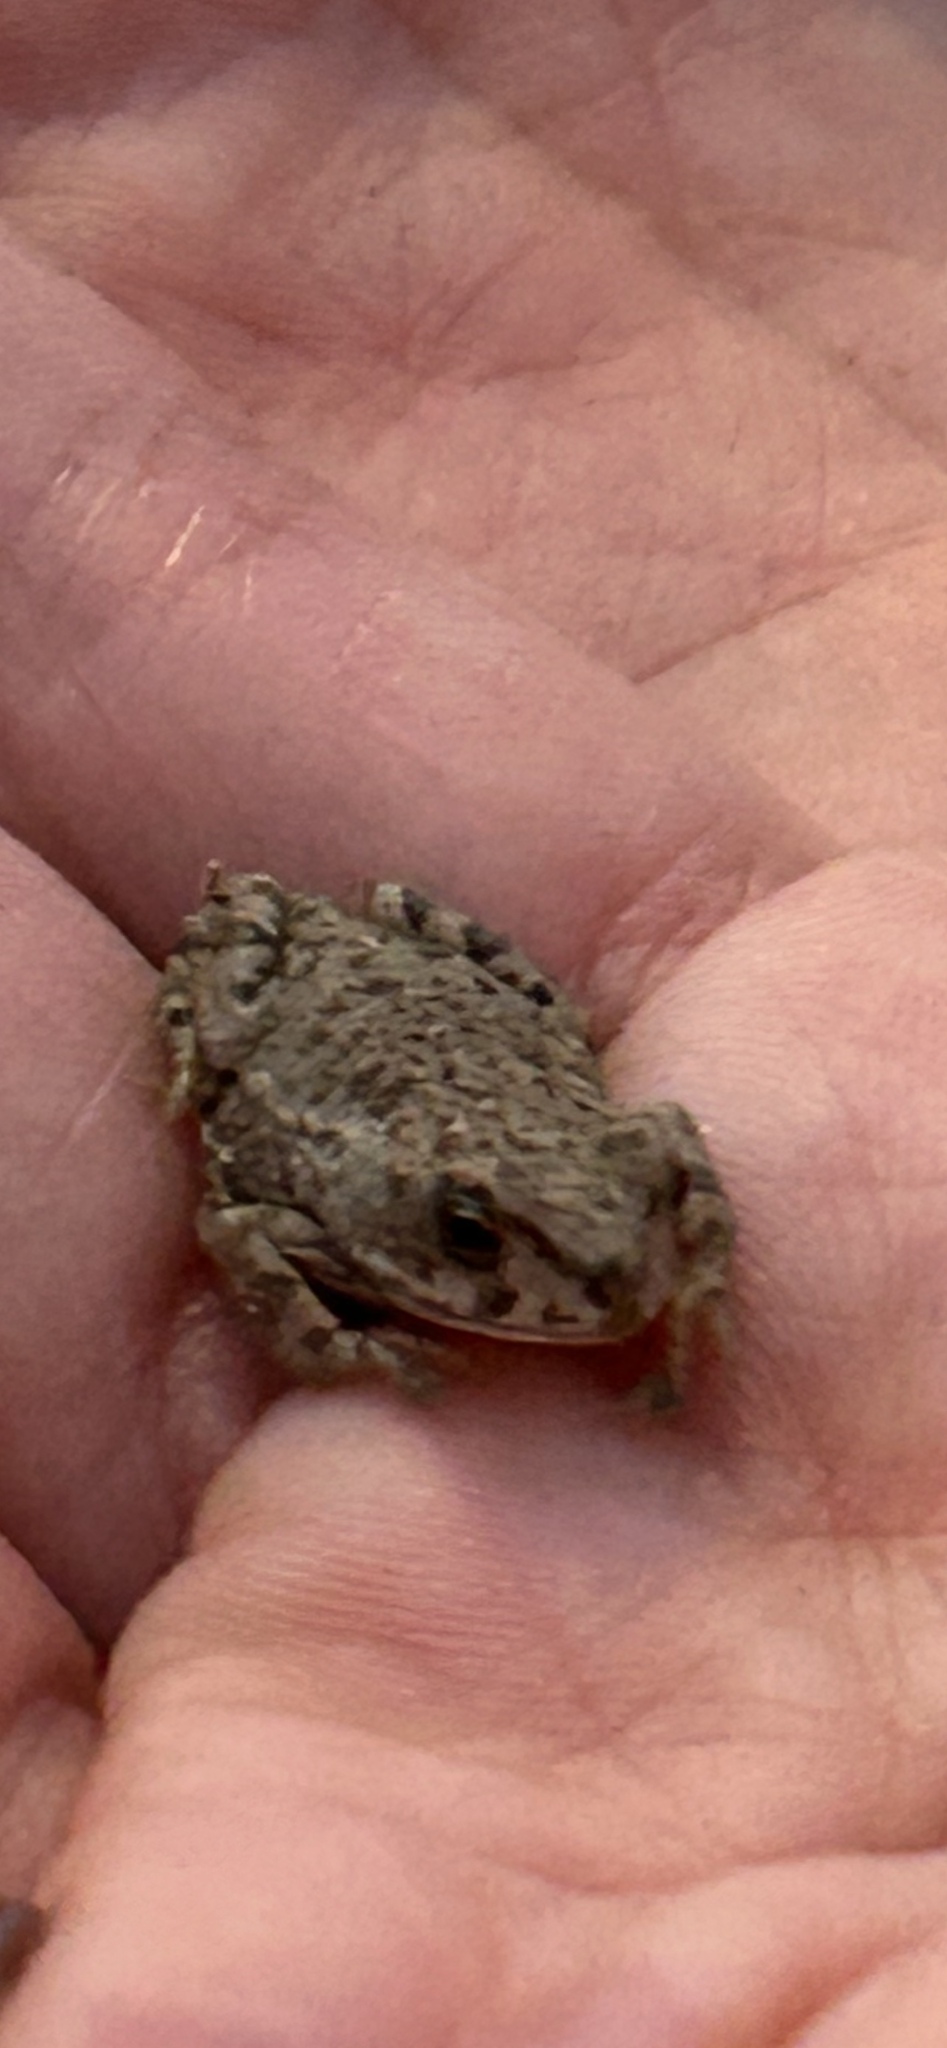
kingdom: Animalia
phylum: Chordata
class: Amphibia
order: Anura
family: Bufonidae
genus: Bufotes
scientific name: Bufotes viridis
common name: European green toad
